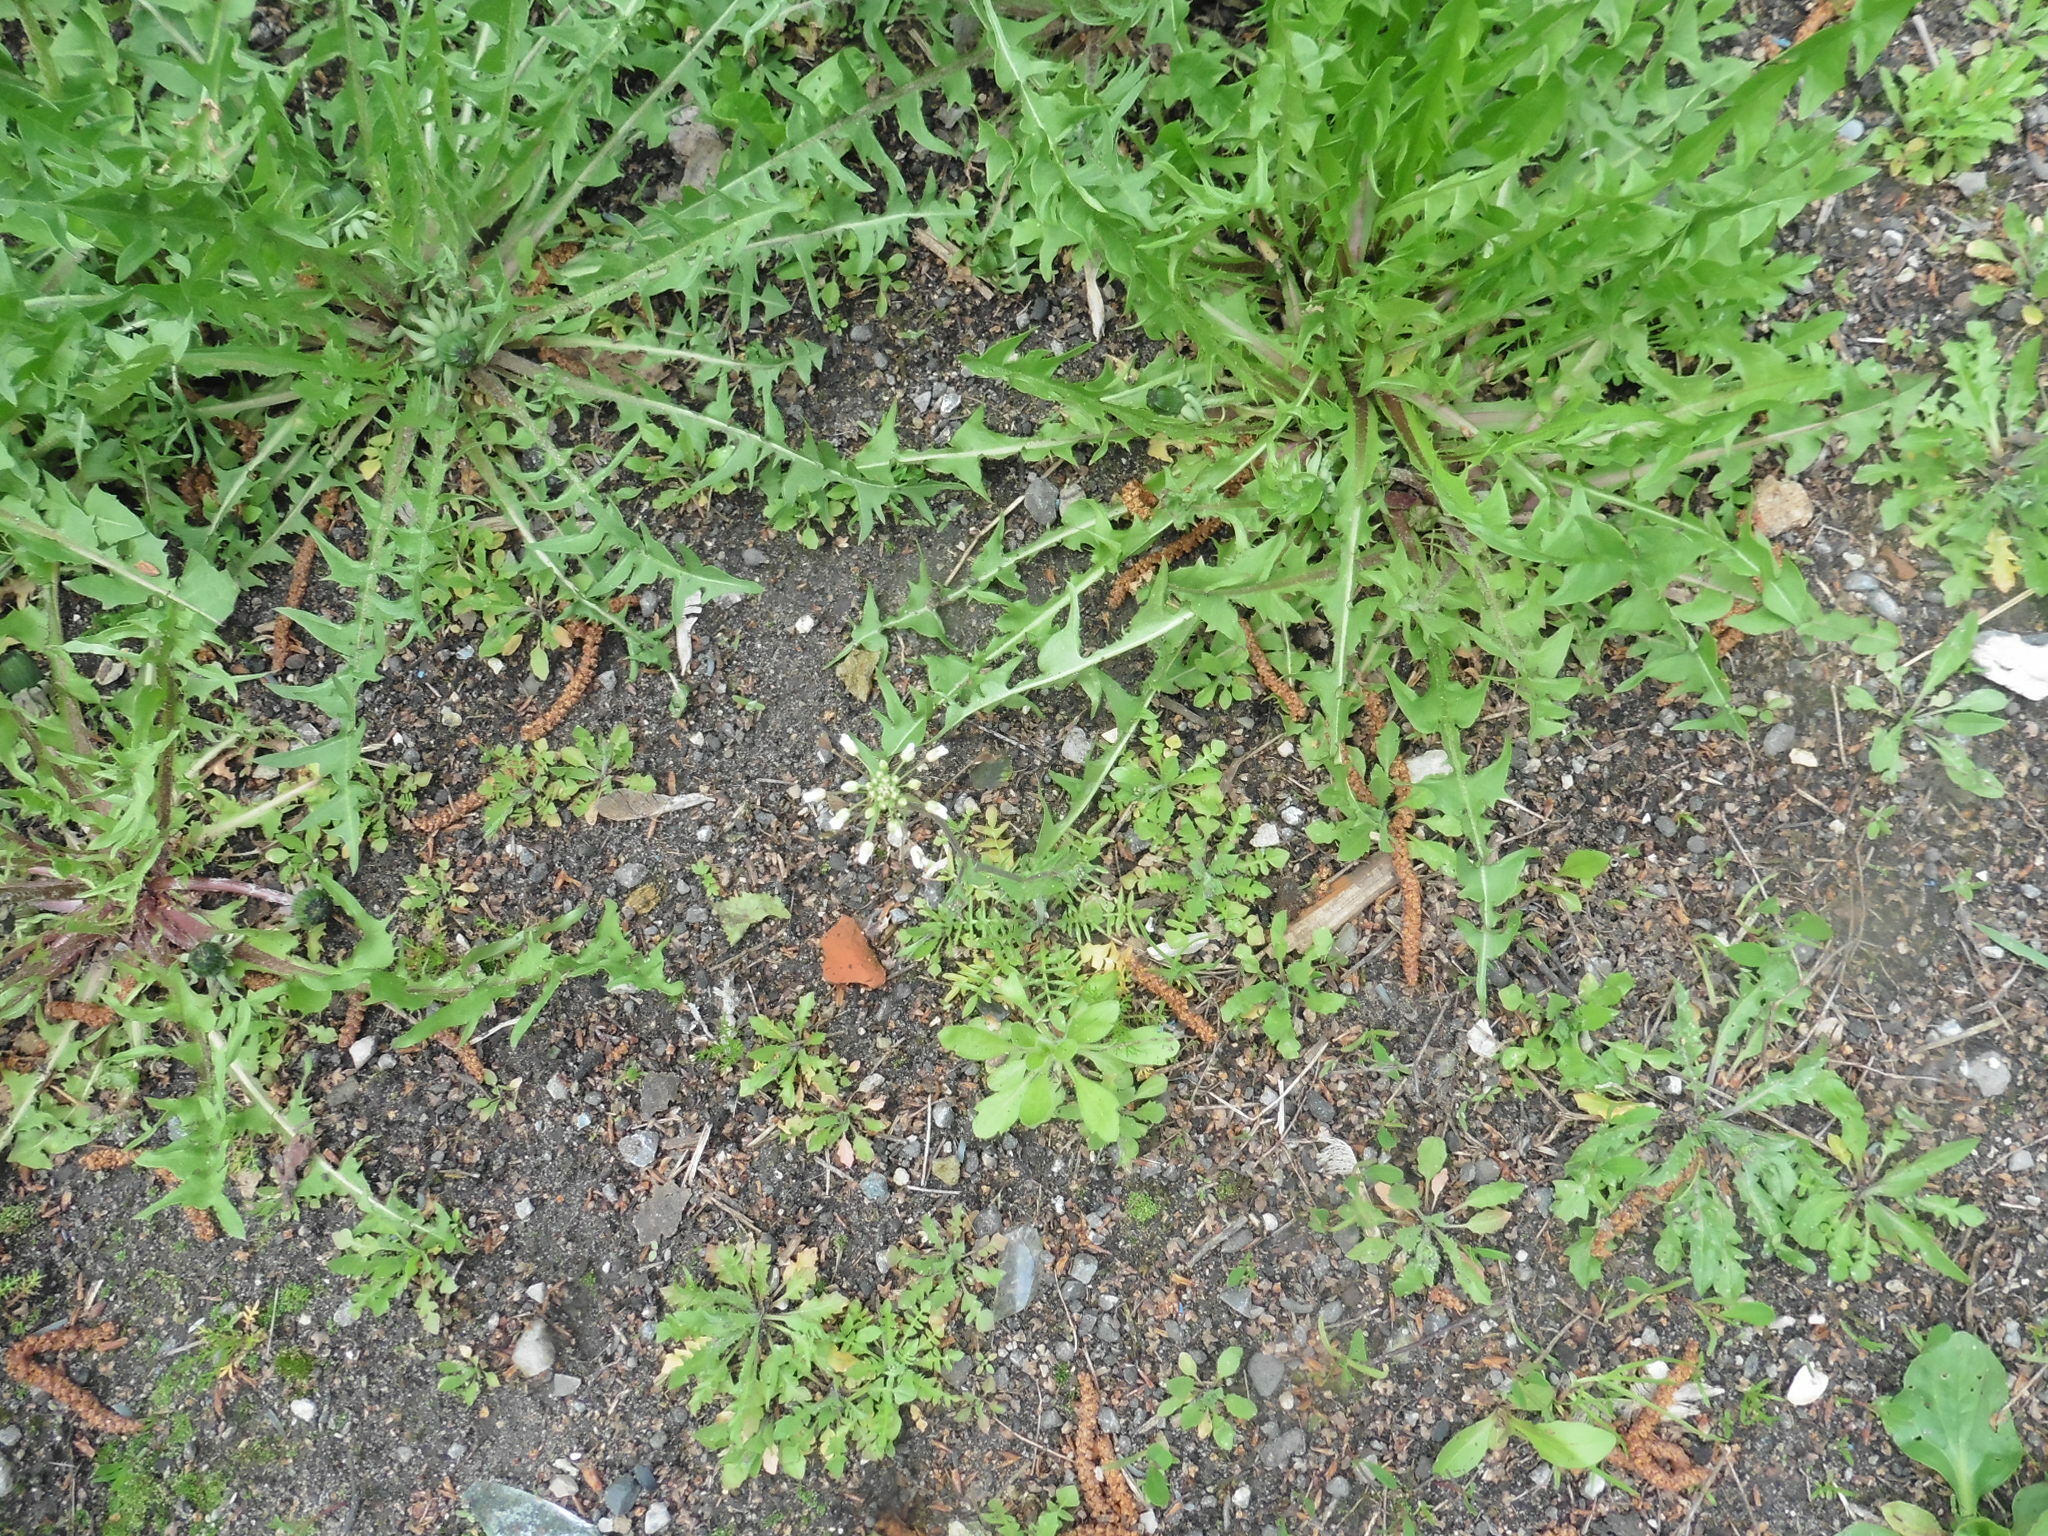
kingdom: Plantae
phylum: Tracheophyta
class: Magnoliopsida
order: Asterales
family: Asteraceae
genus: Taraxacum
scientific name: Taraxacum officinale
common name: Common dandelion
